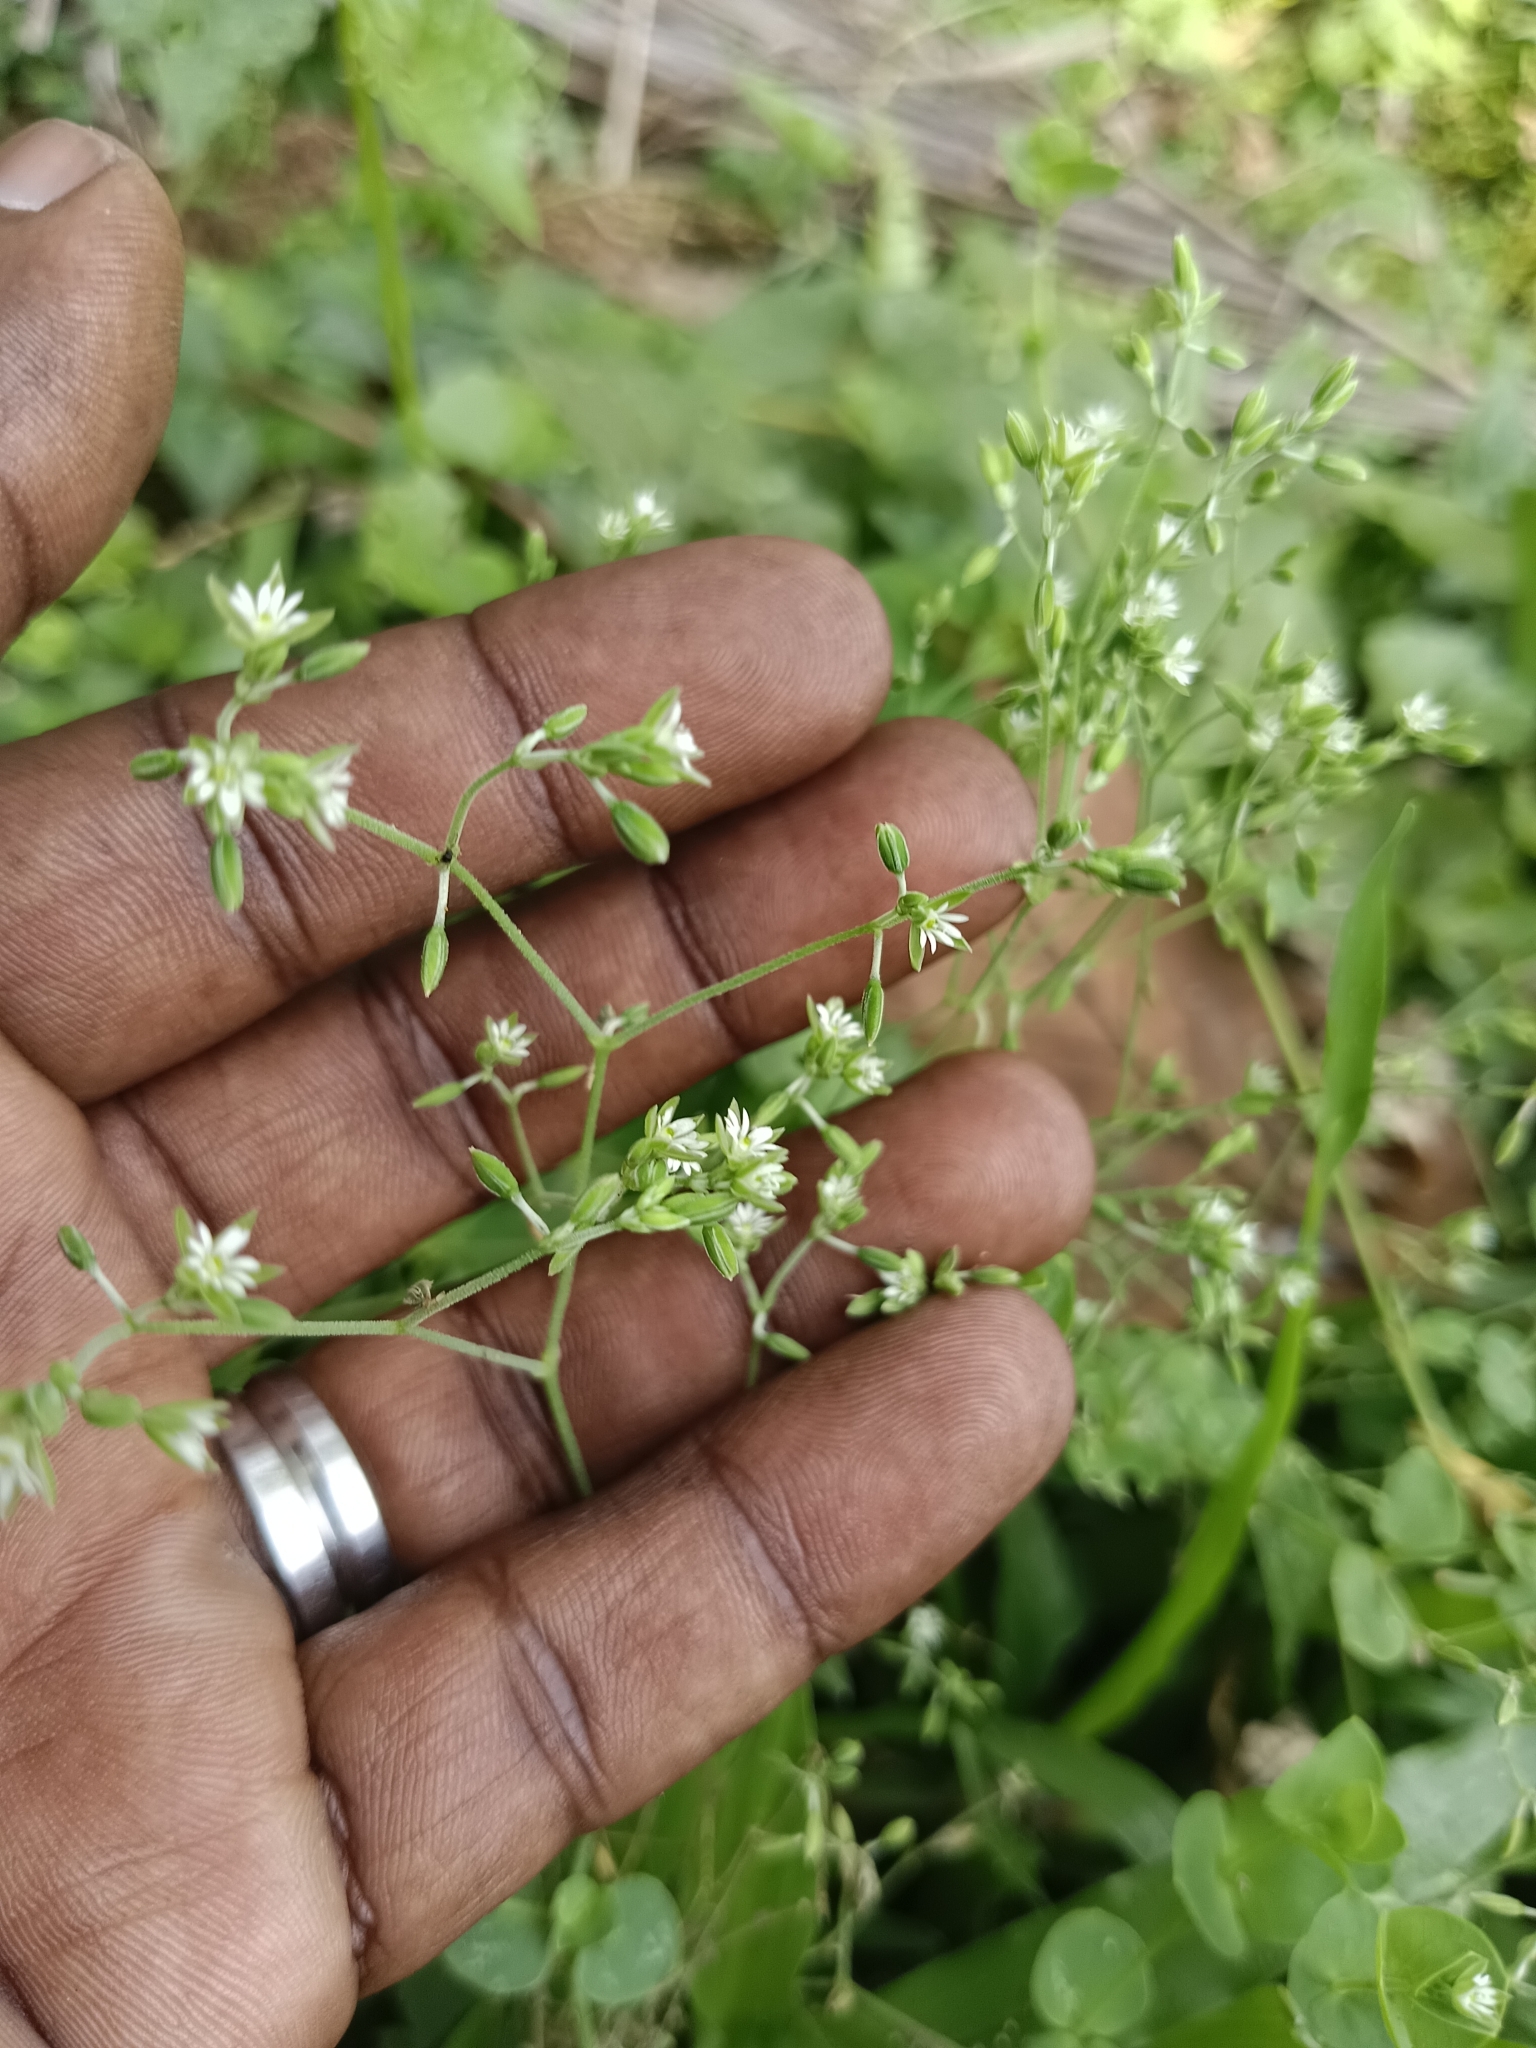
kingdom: Plantae
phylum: Tracheophyta
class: Magnoliopsida
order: Caryophyllales
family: Caryophyllaceae
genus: Drymaria
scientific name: Drymaria cordata
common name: Whitesnow
